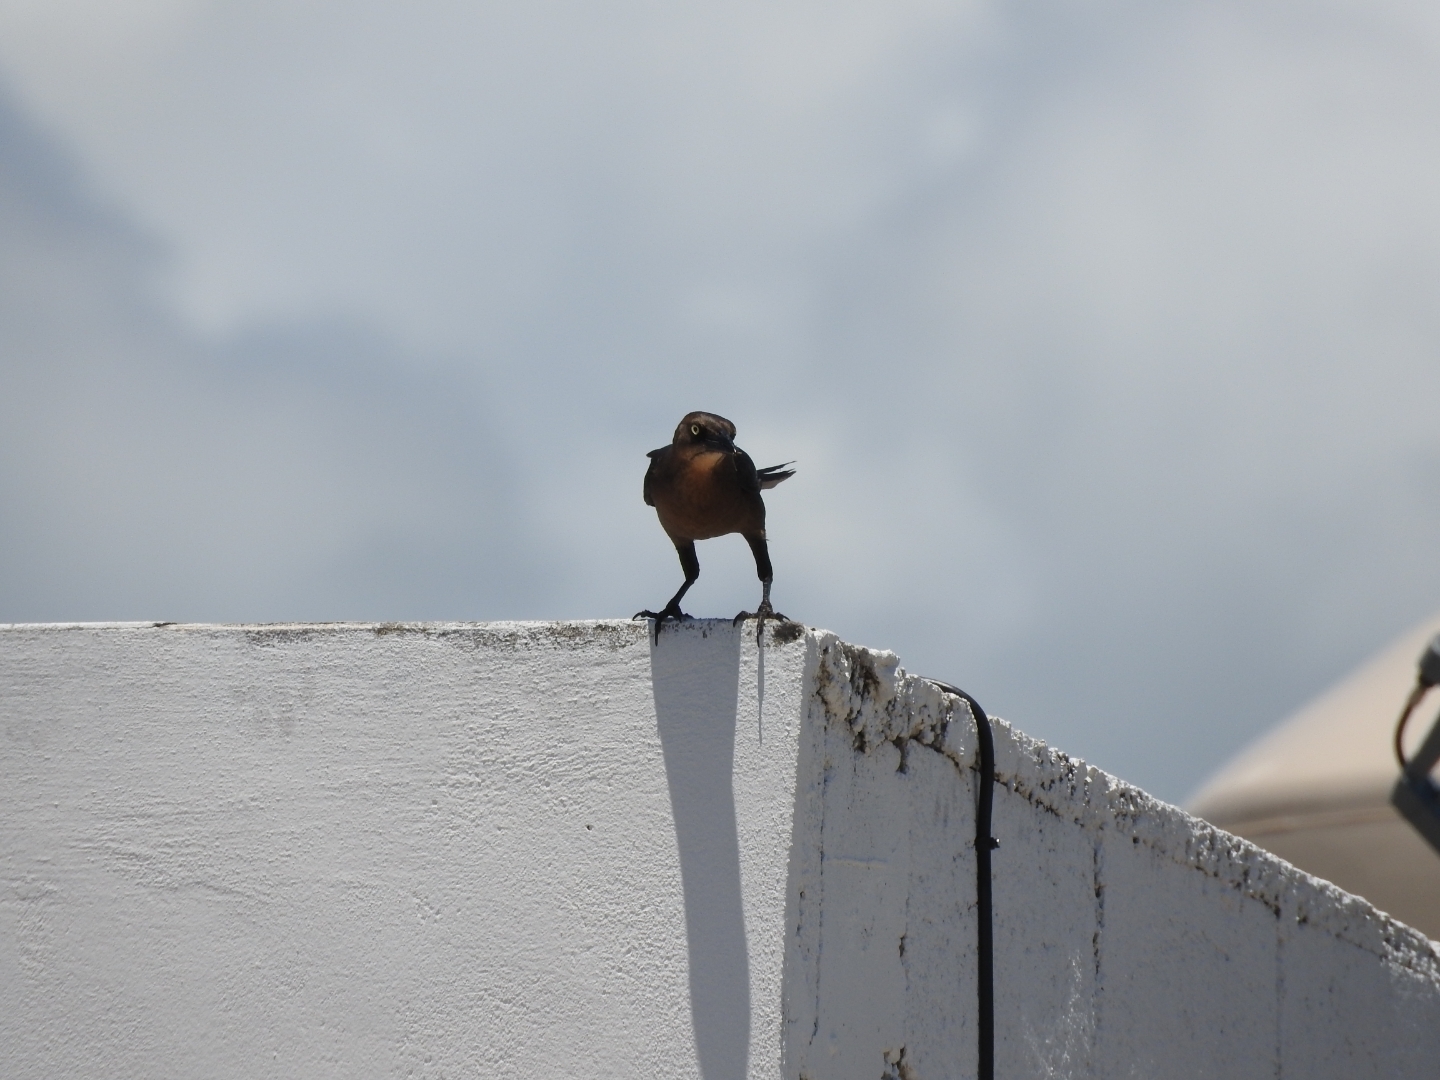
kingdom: Animalia
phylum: Chordata
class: Aves
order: Passeriformes
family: Icteridae
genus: Quiscalus
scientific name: Quiscalus mexicanus
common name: Great-tailed grackle
